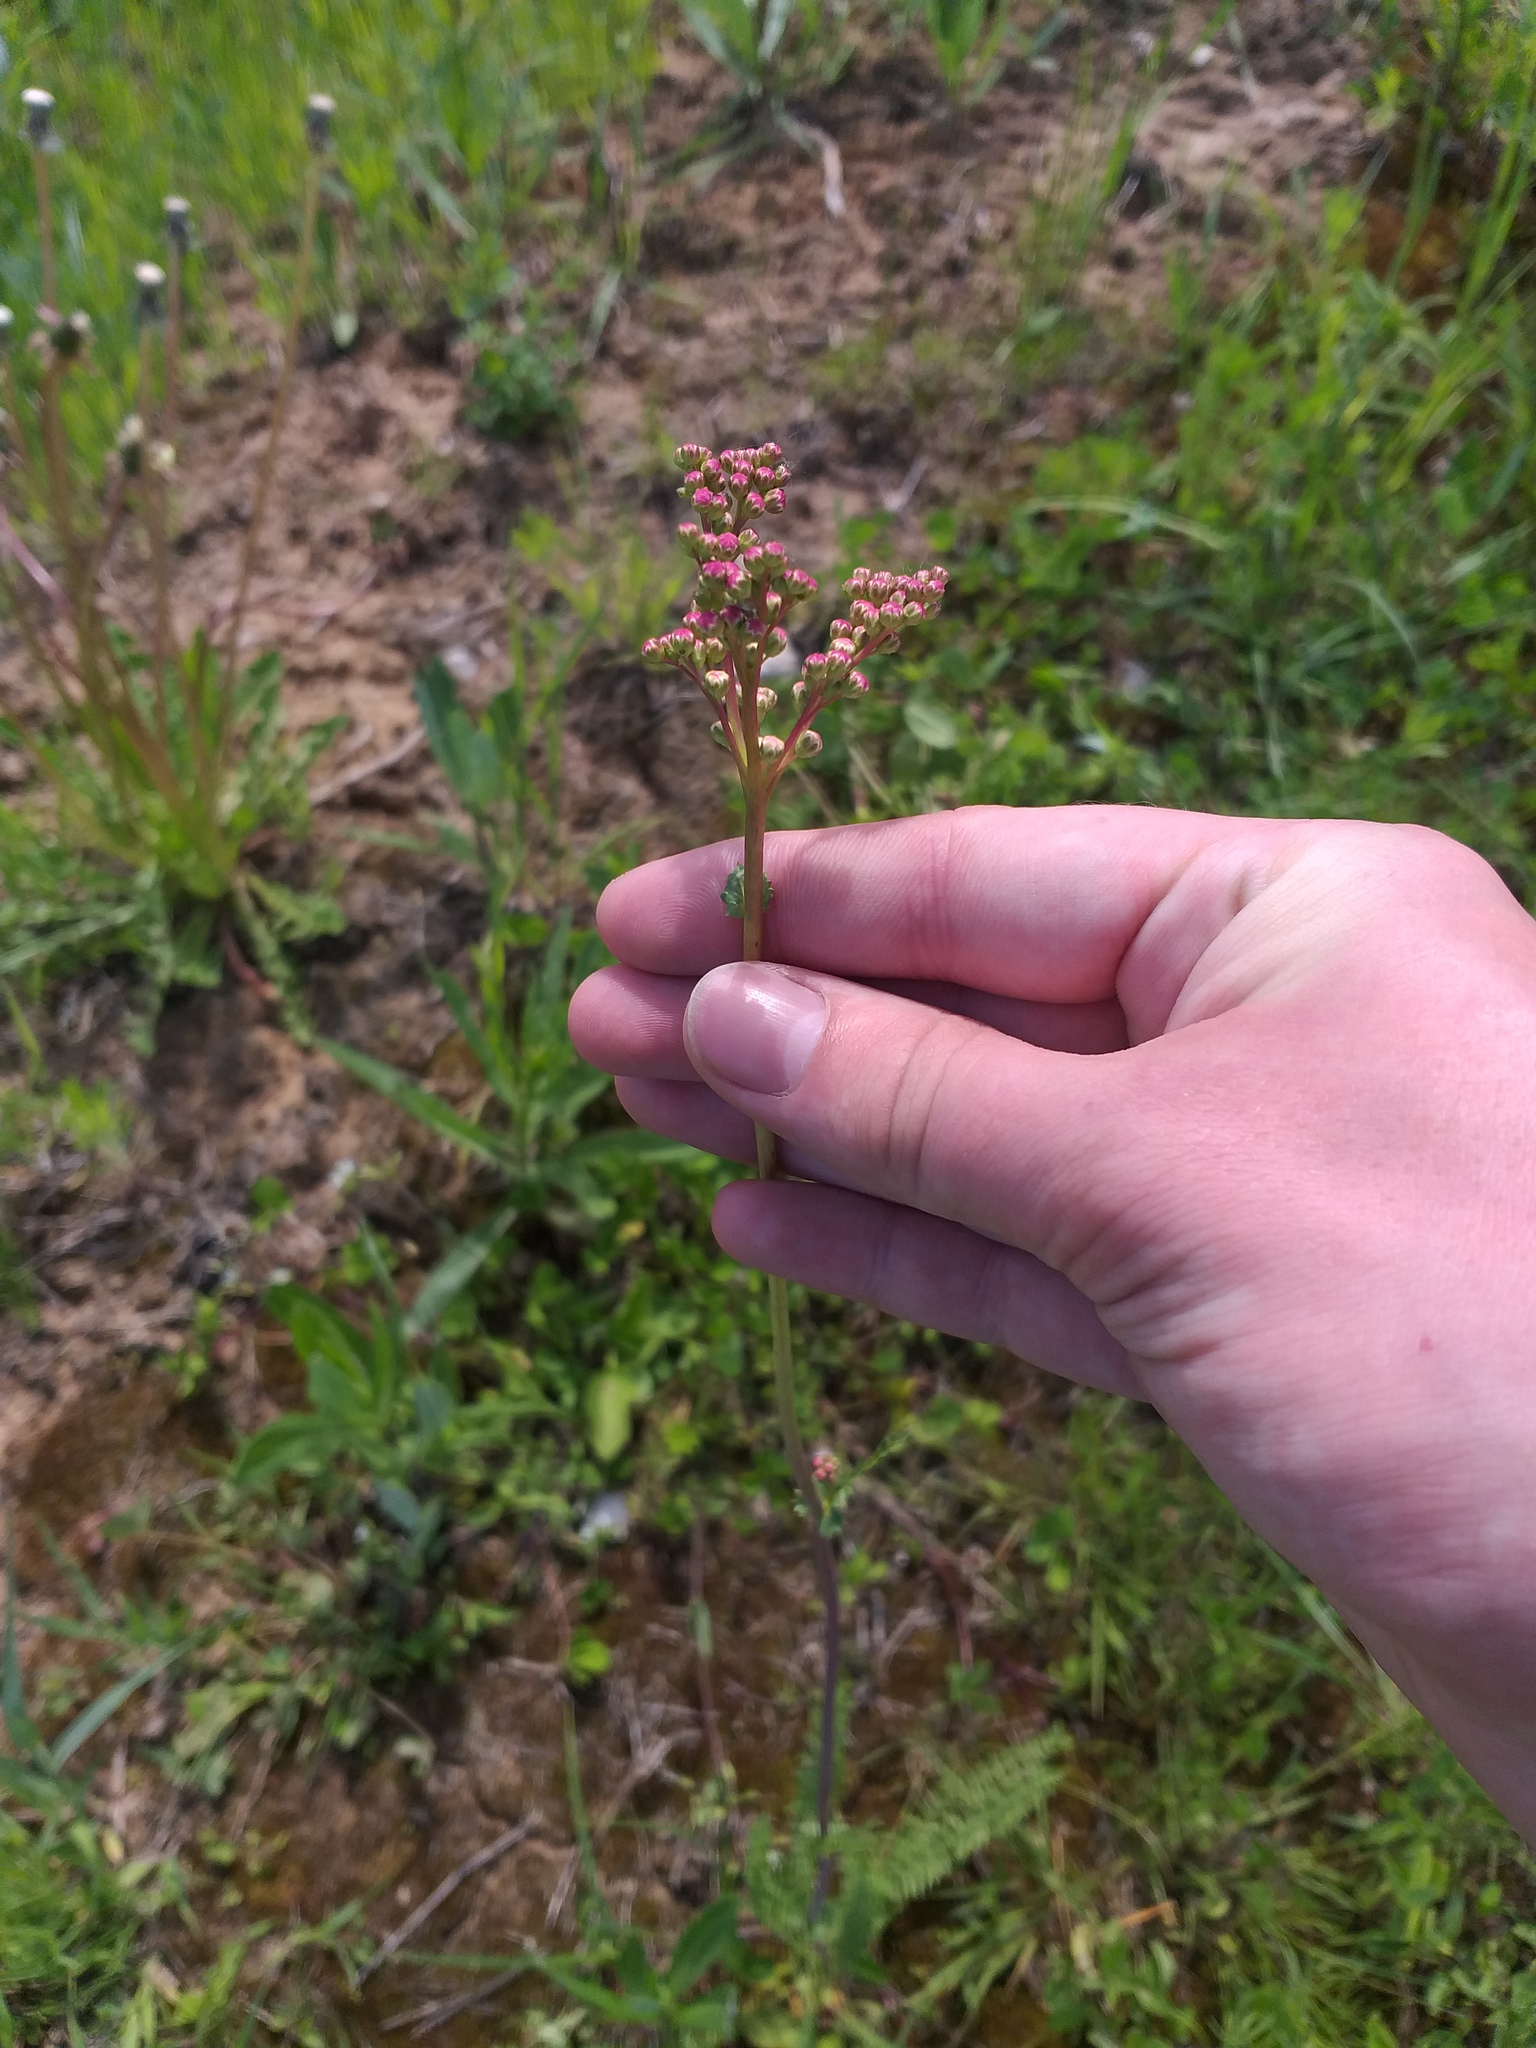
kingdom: Plantae
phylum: Tracheophyta
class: Magnoliopsida
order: Rosales
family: Rosaceae
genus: Filipendula
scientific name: Filipendula vulgaris
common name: Dropwort
